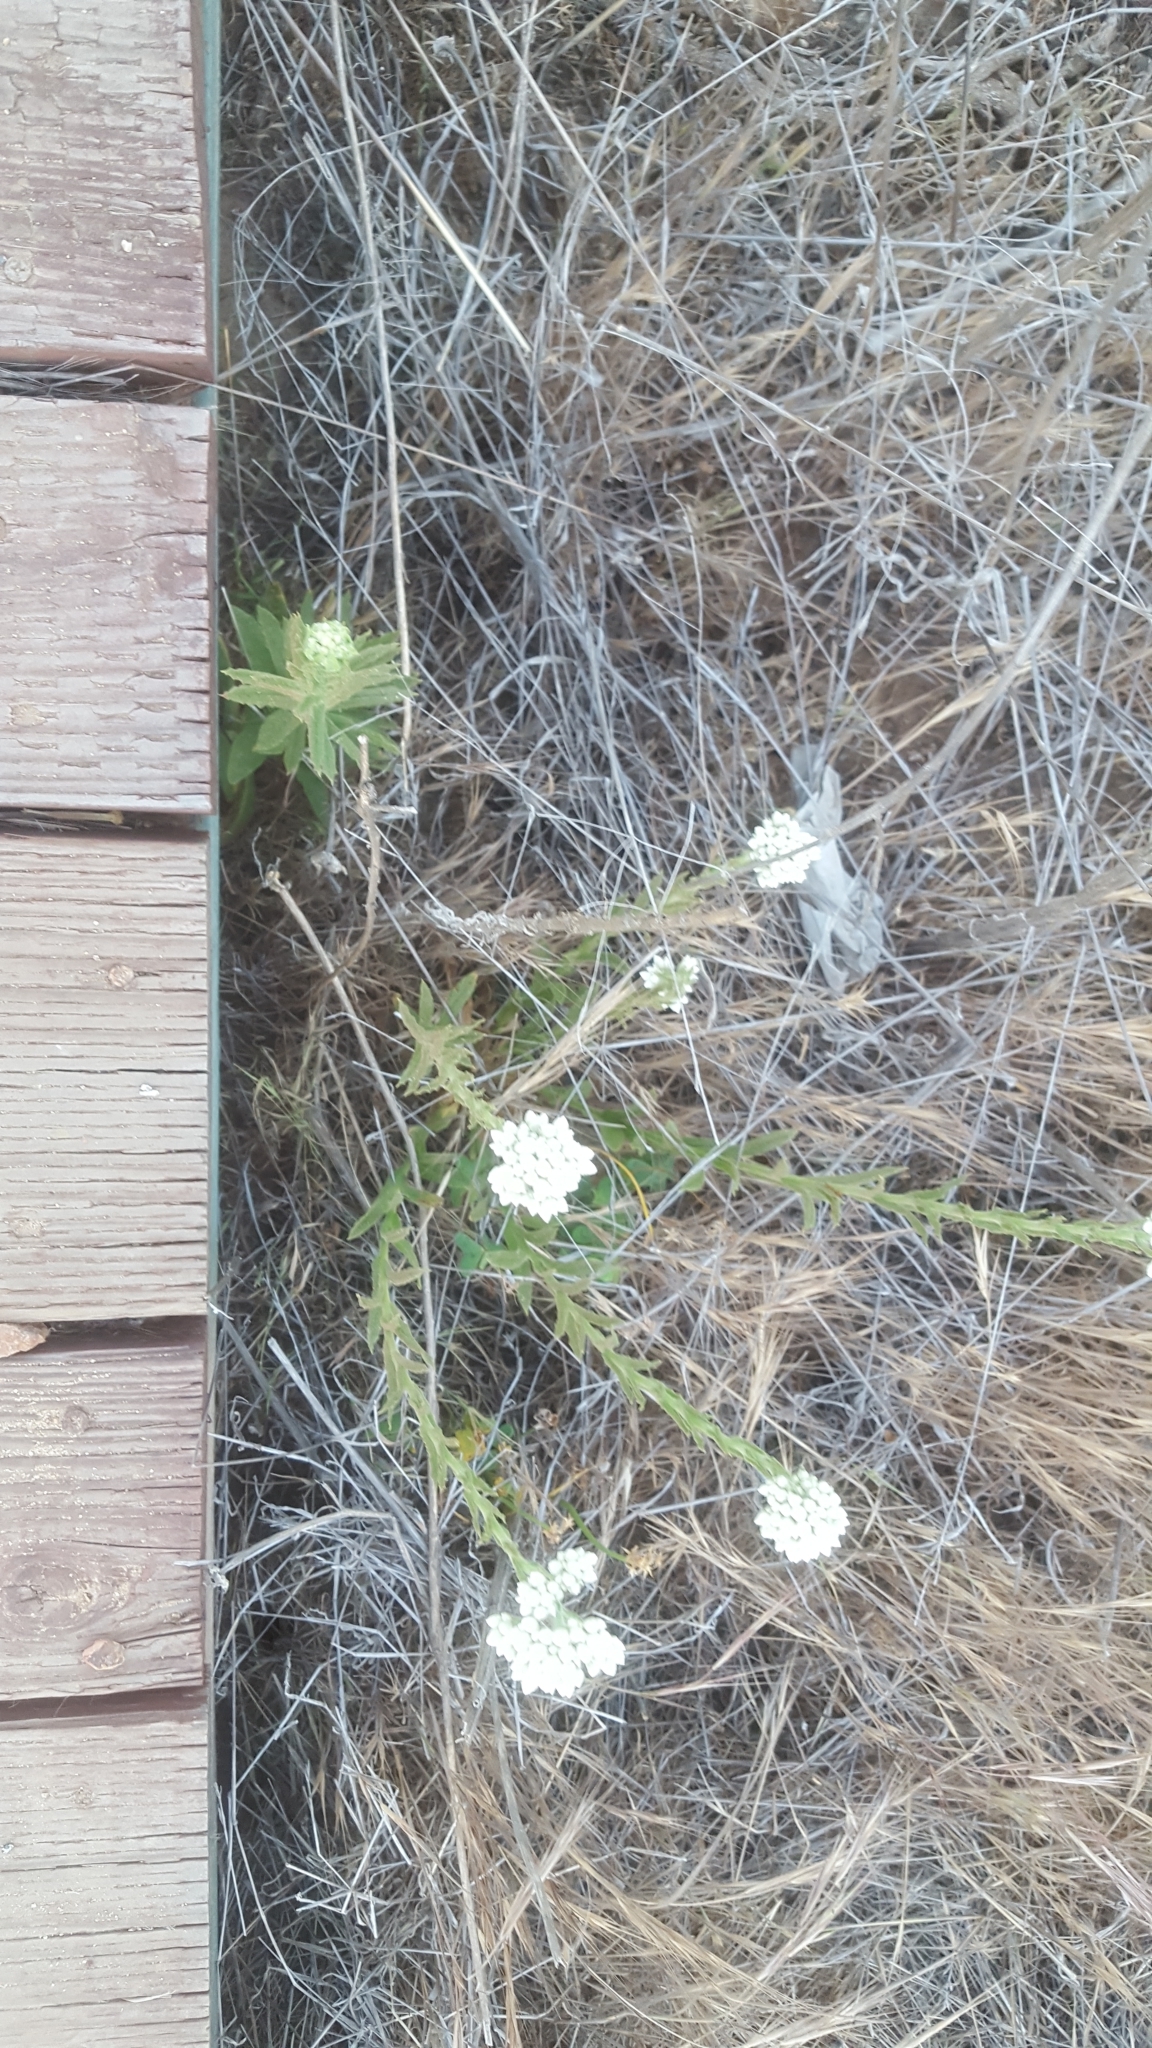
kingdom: Plantae
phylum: Tracheophyta
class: Magnoliopsida
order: Asterales
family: Asteraceae
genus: Pseudognaphalium
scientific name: Pseudognaphalium californicum
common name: California rabbit-tobacco
